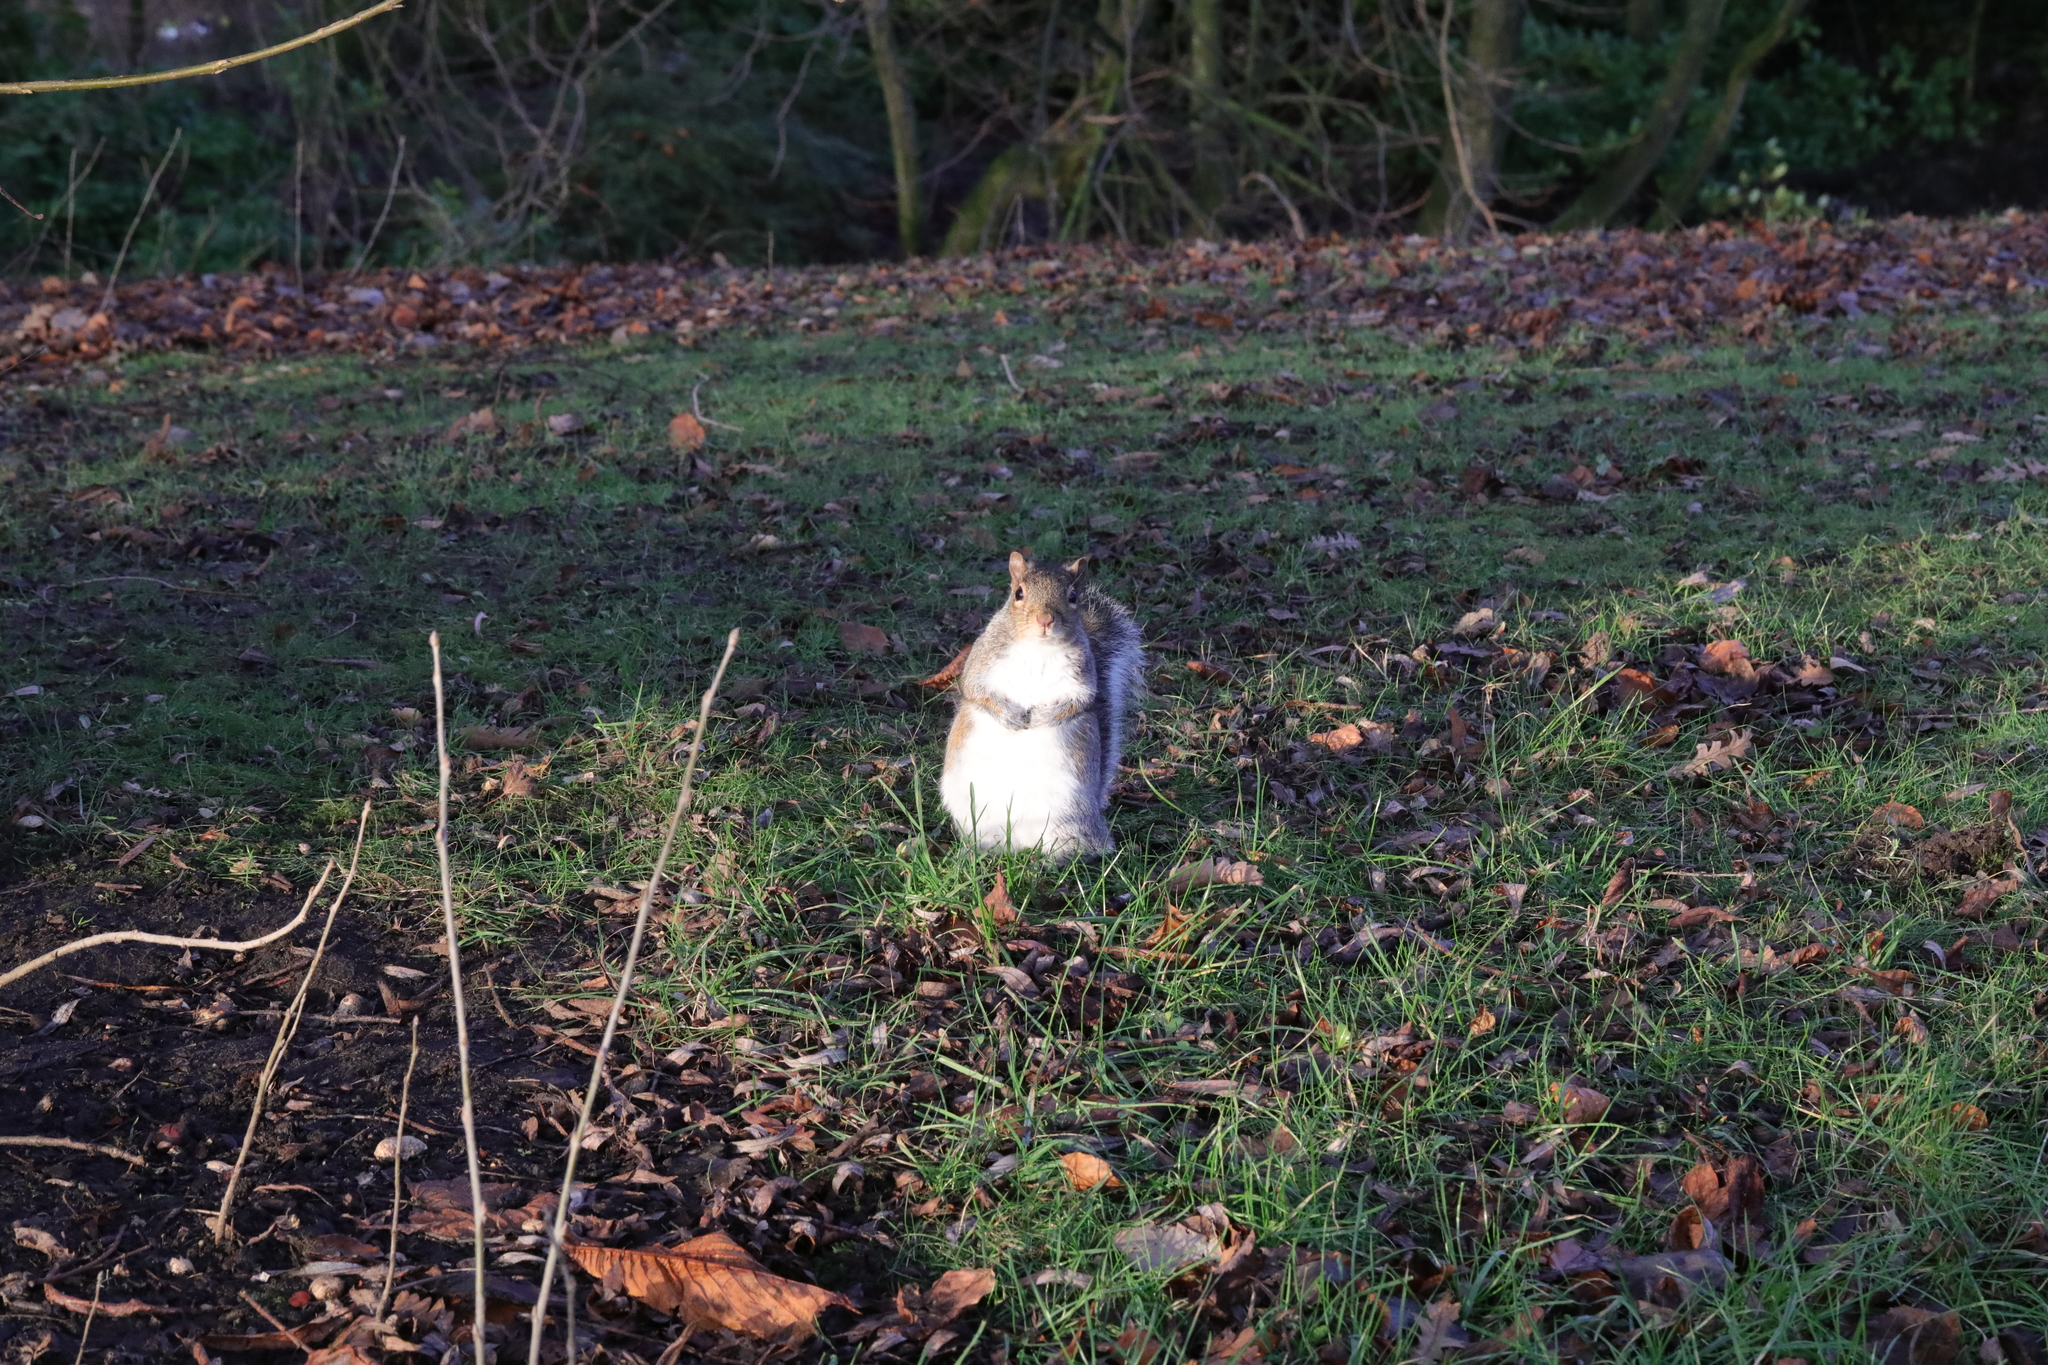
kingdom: Animalia
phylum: Chordata
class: Mammalia
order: Rodentia
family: Sciuridae
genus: Sciurus
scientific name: Sciurus carolinensis
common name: Eastern gray squirrel
